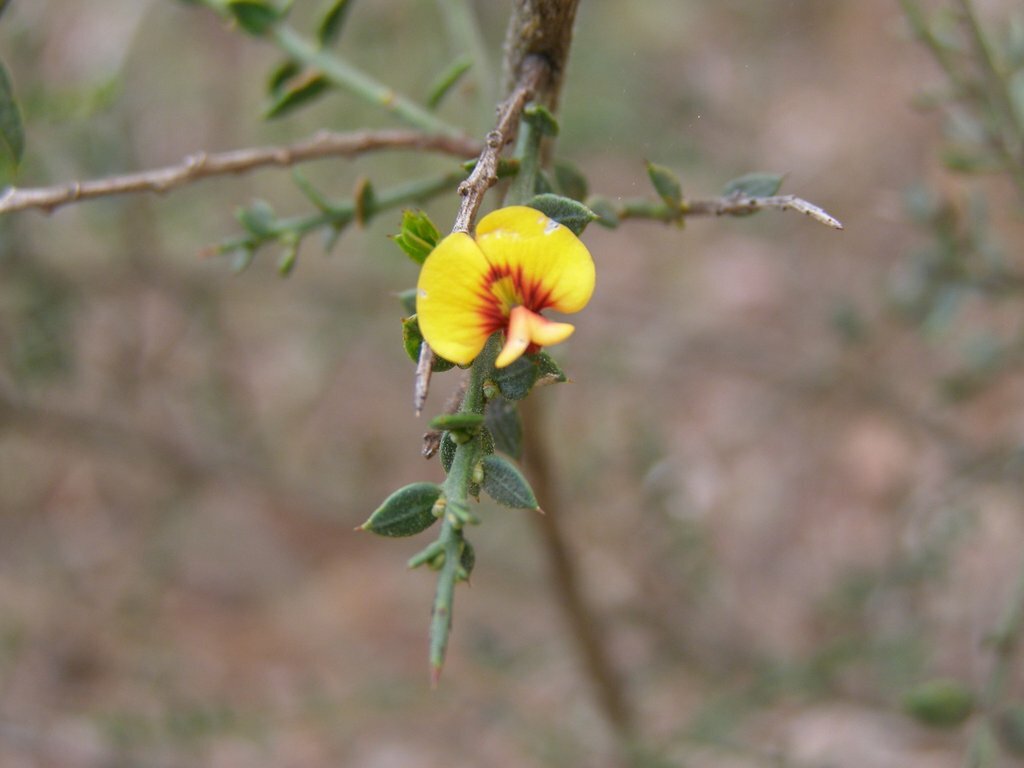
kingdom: Plantae
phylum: Tracheophyta
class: Magnoliopsida
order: Fabales
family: Fabaceae
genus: Daviesia
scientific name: Daviesia ulicifolia
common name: Gorse bitter-pea
